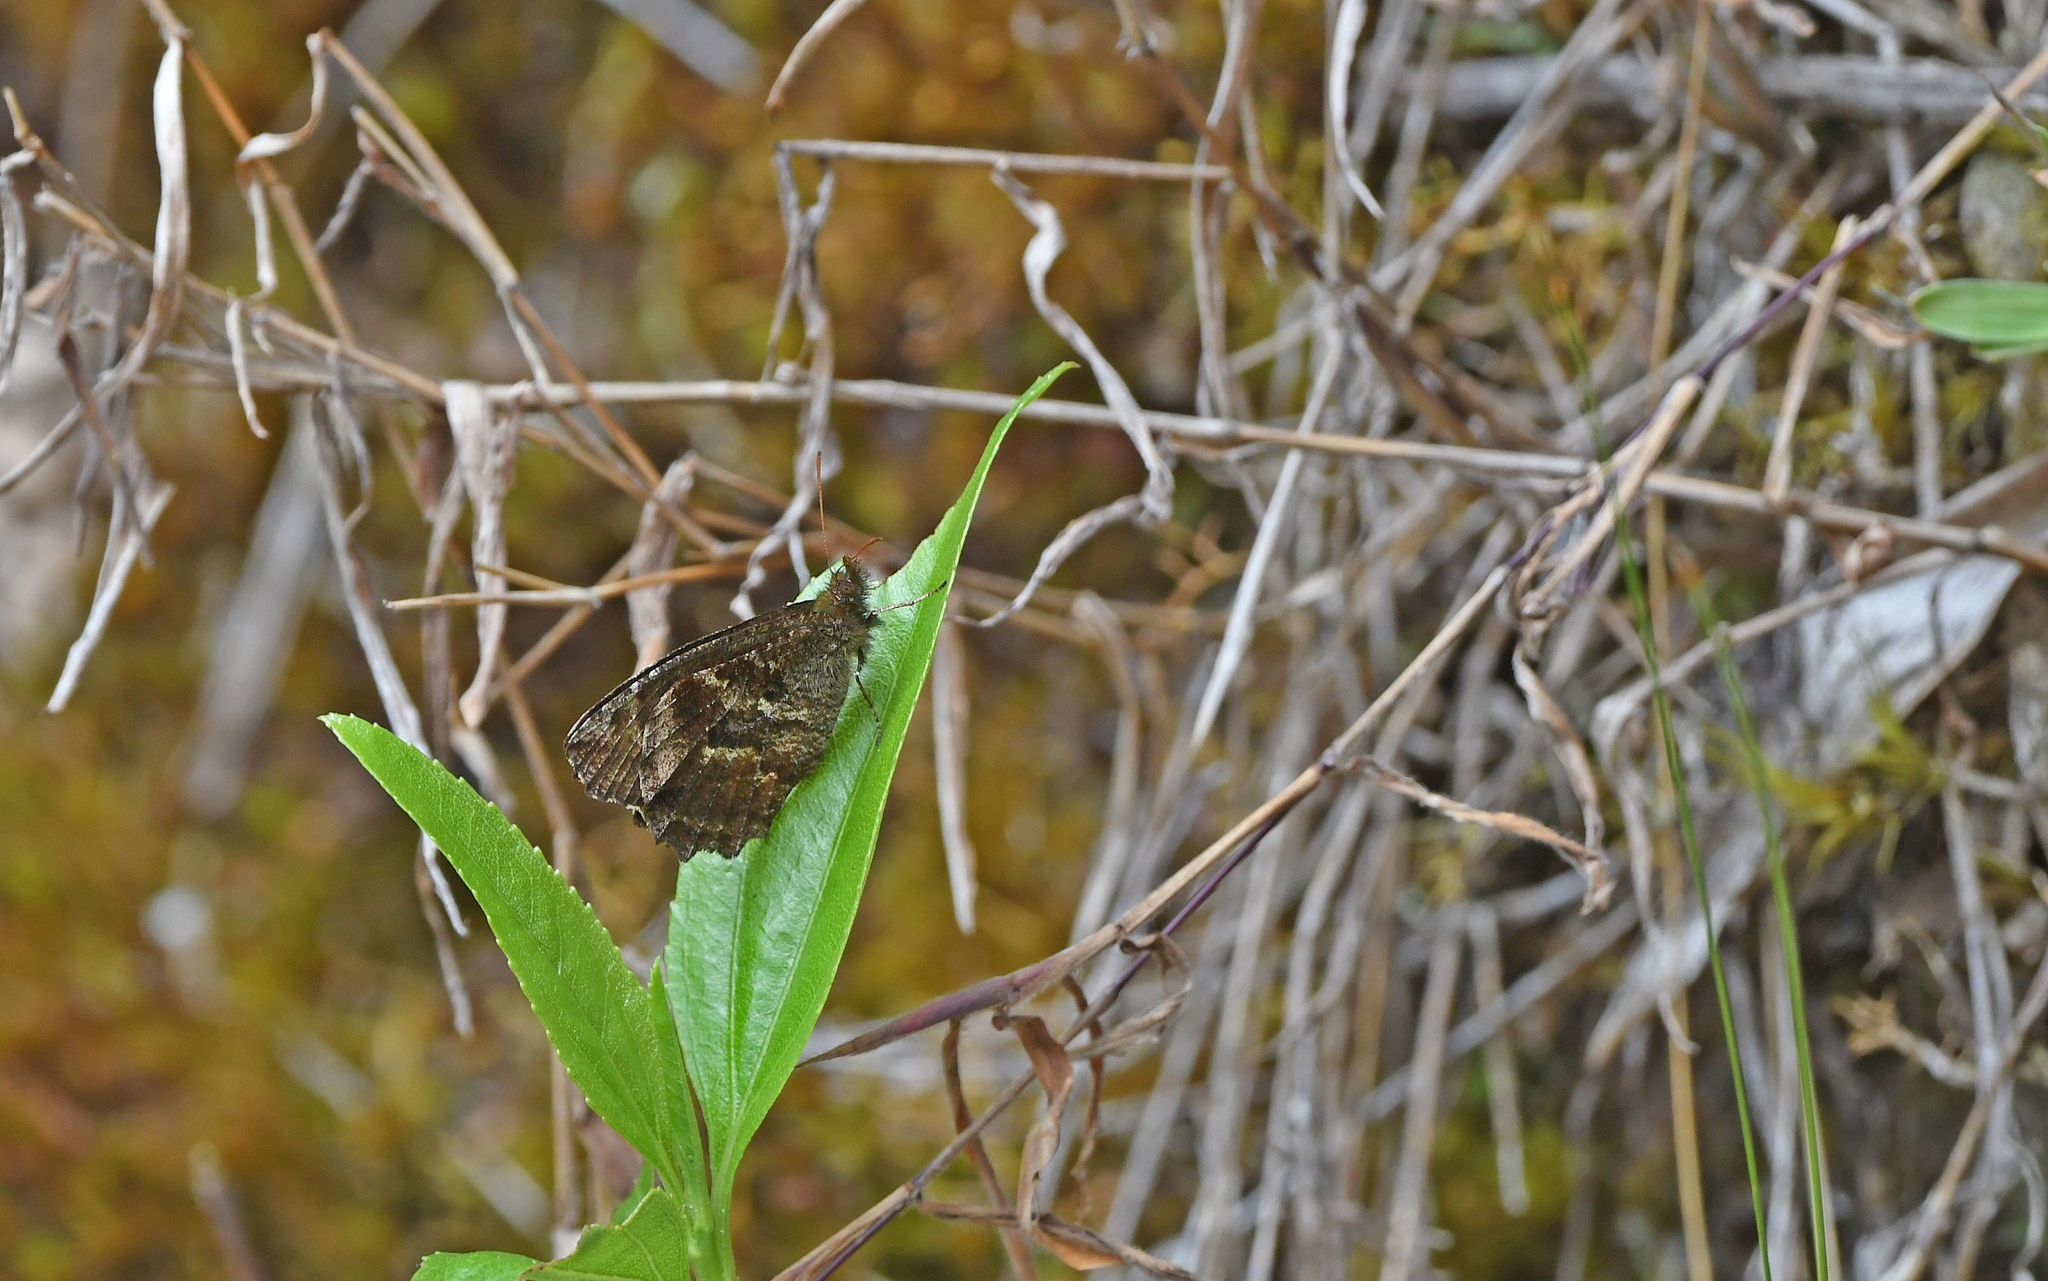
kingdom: Animalia
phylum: Arthropoda
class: Insecta
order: Lepidoptera
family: Nymphalidae
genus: Panyapedaliodes
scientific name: Panyapedaliodes mara
